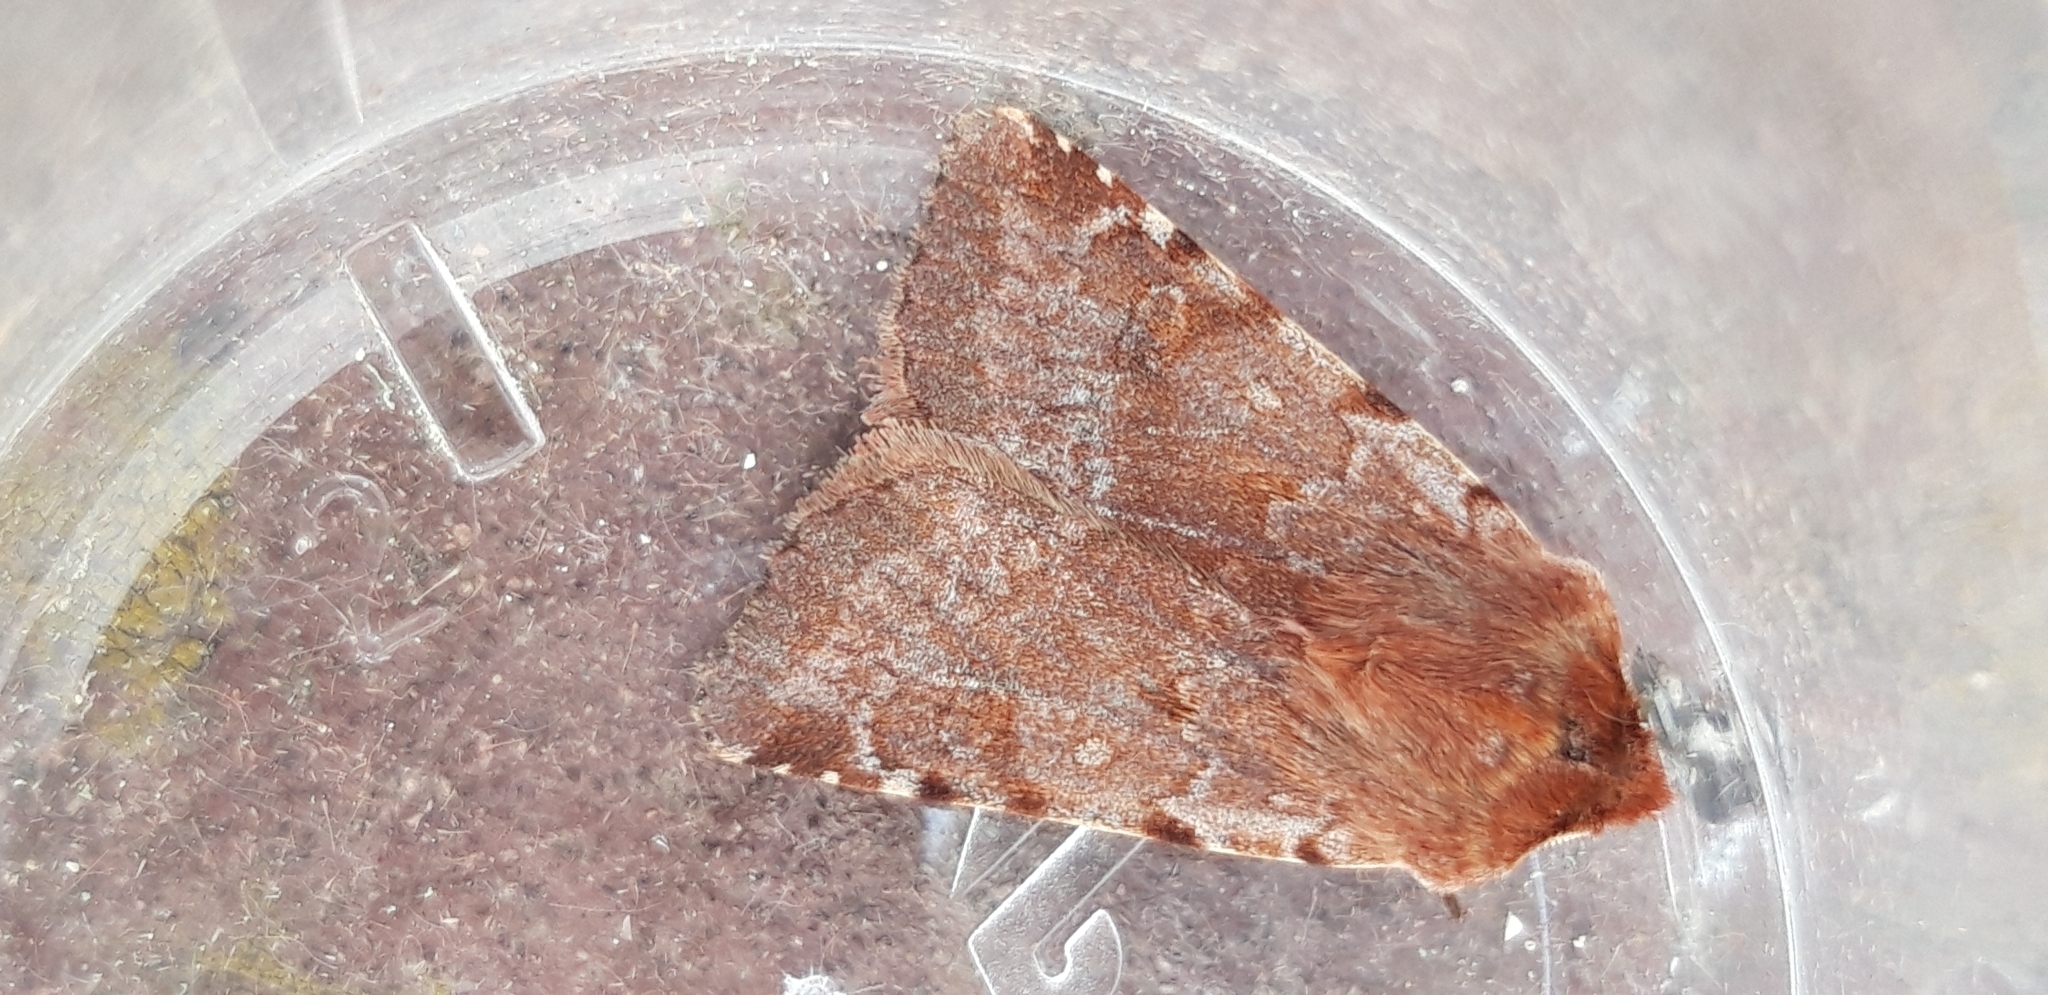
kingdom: Animalia
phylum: Arthropoda
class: Insecta
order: Lepidoptera
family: Noctuidae
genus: Cerastis
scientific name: Cerastis rubricosa
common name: Red chestnut
